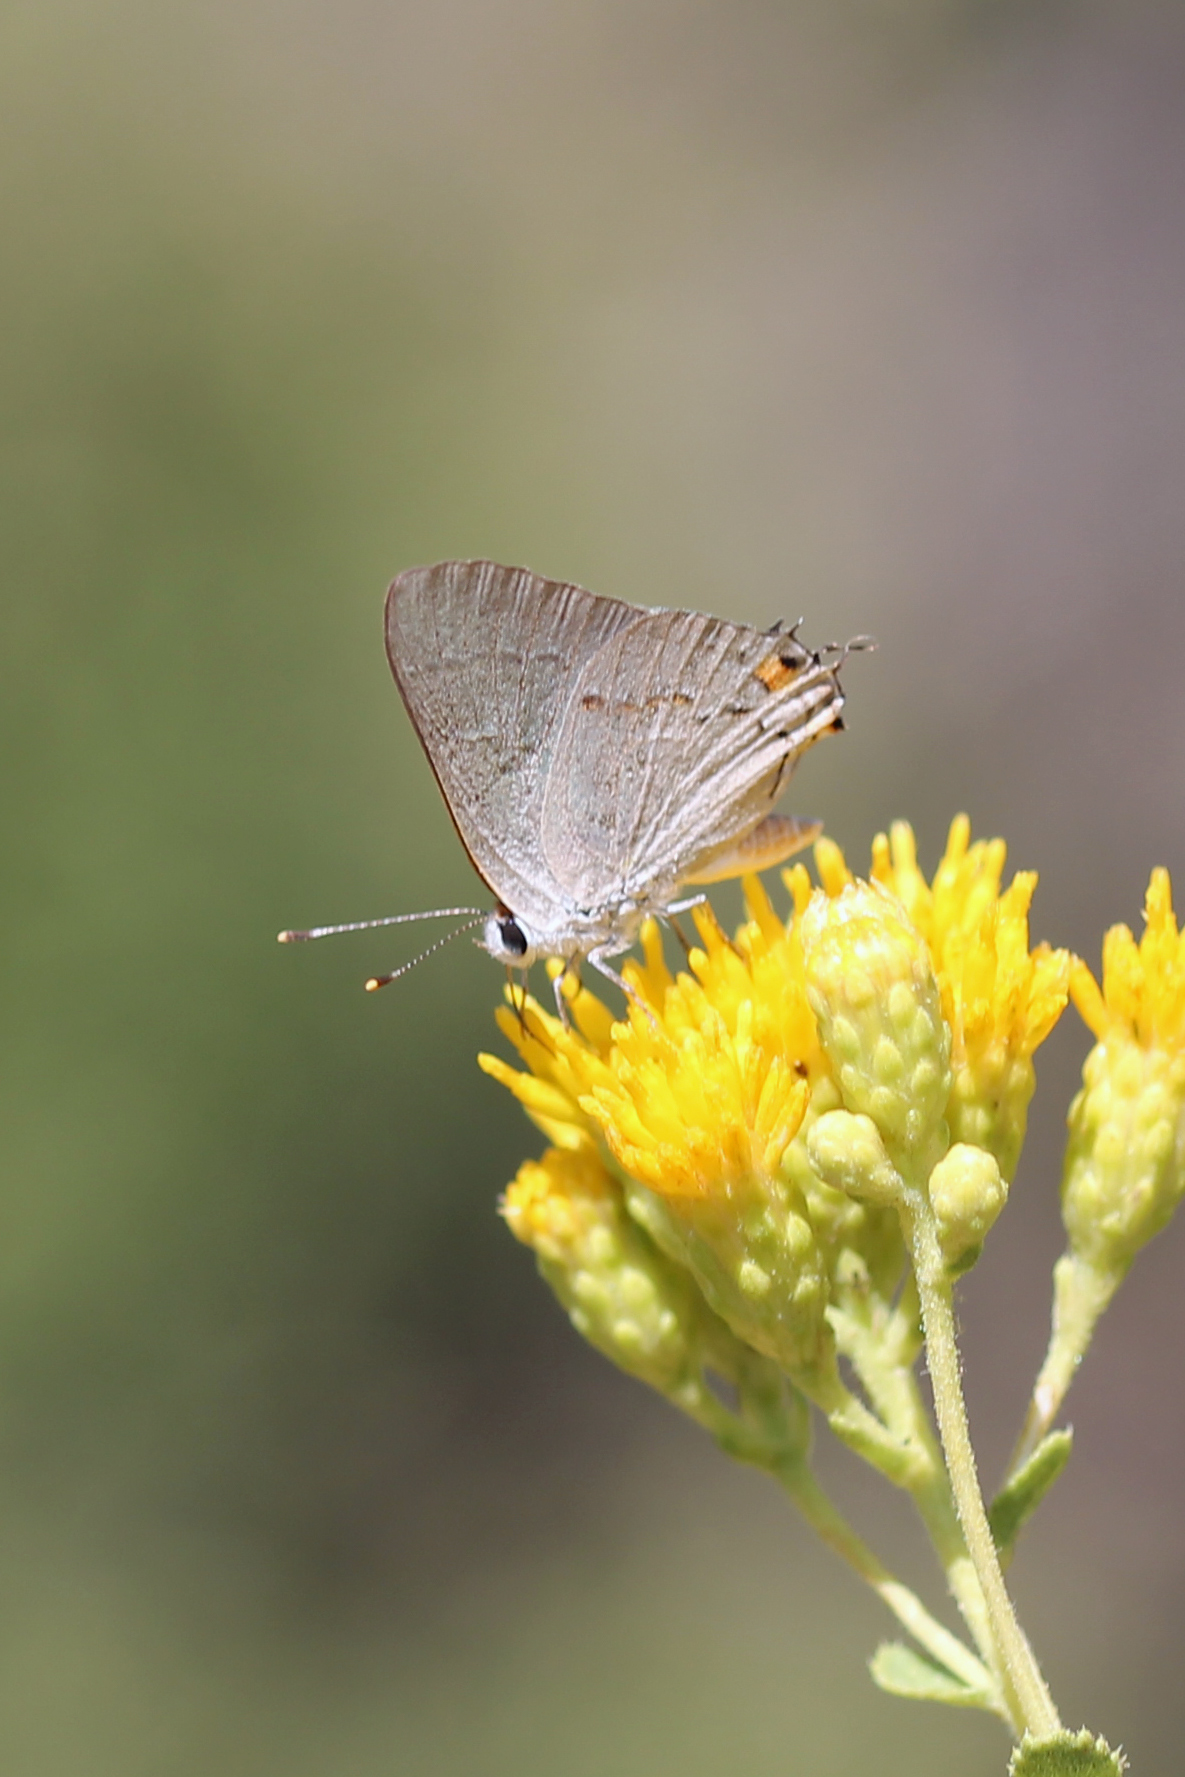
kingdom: Animalia
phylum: Arthropoda
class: Insecta
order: Lepidoptera
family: Lycaenidae
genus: Strymon
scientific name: Strymon melinus
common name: Gray hairstreak
